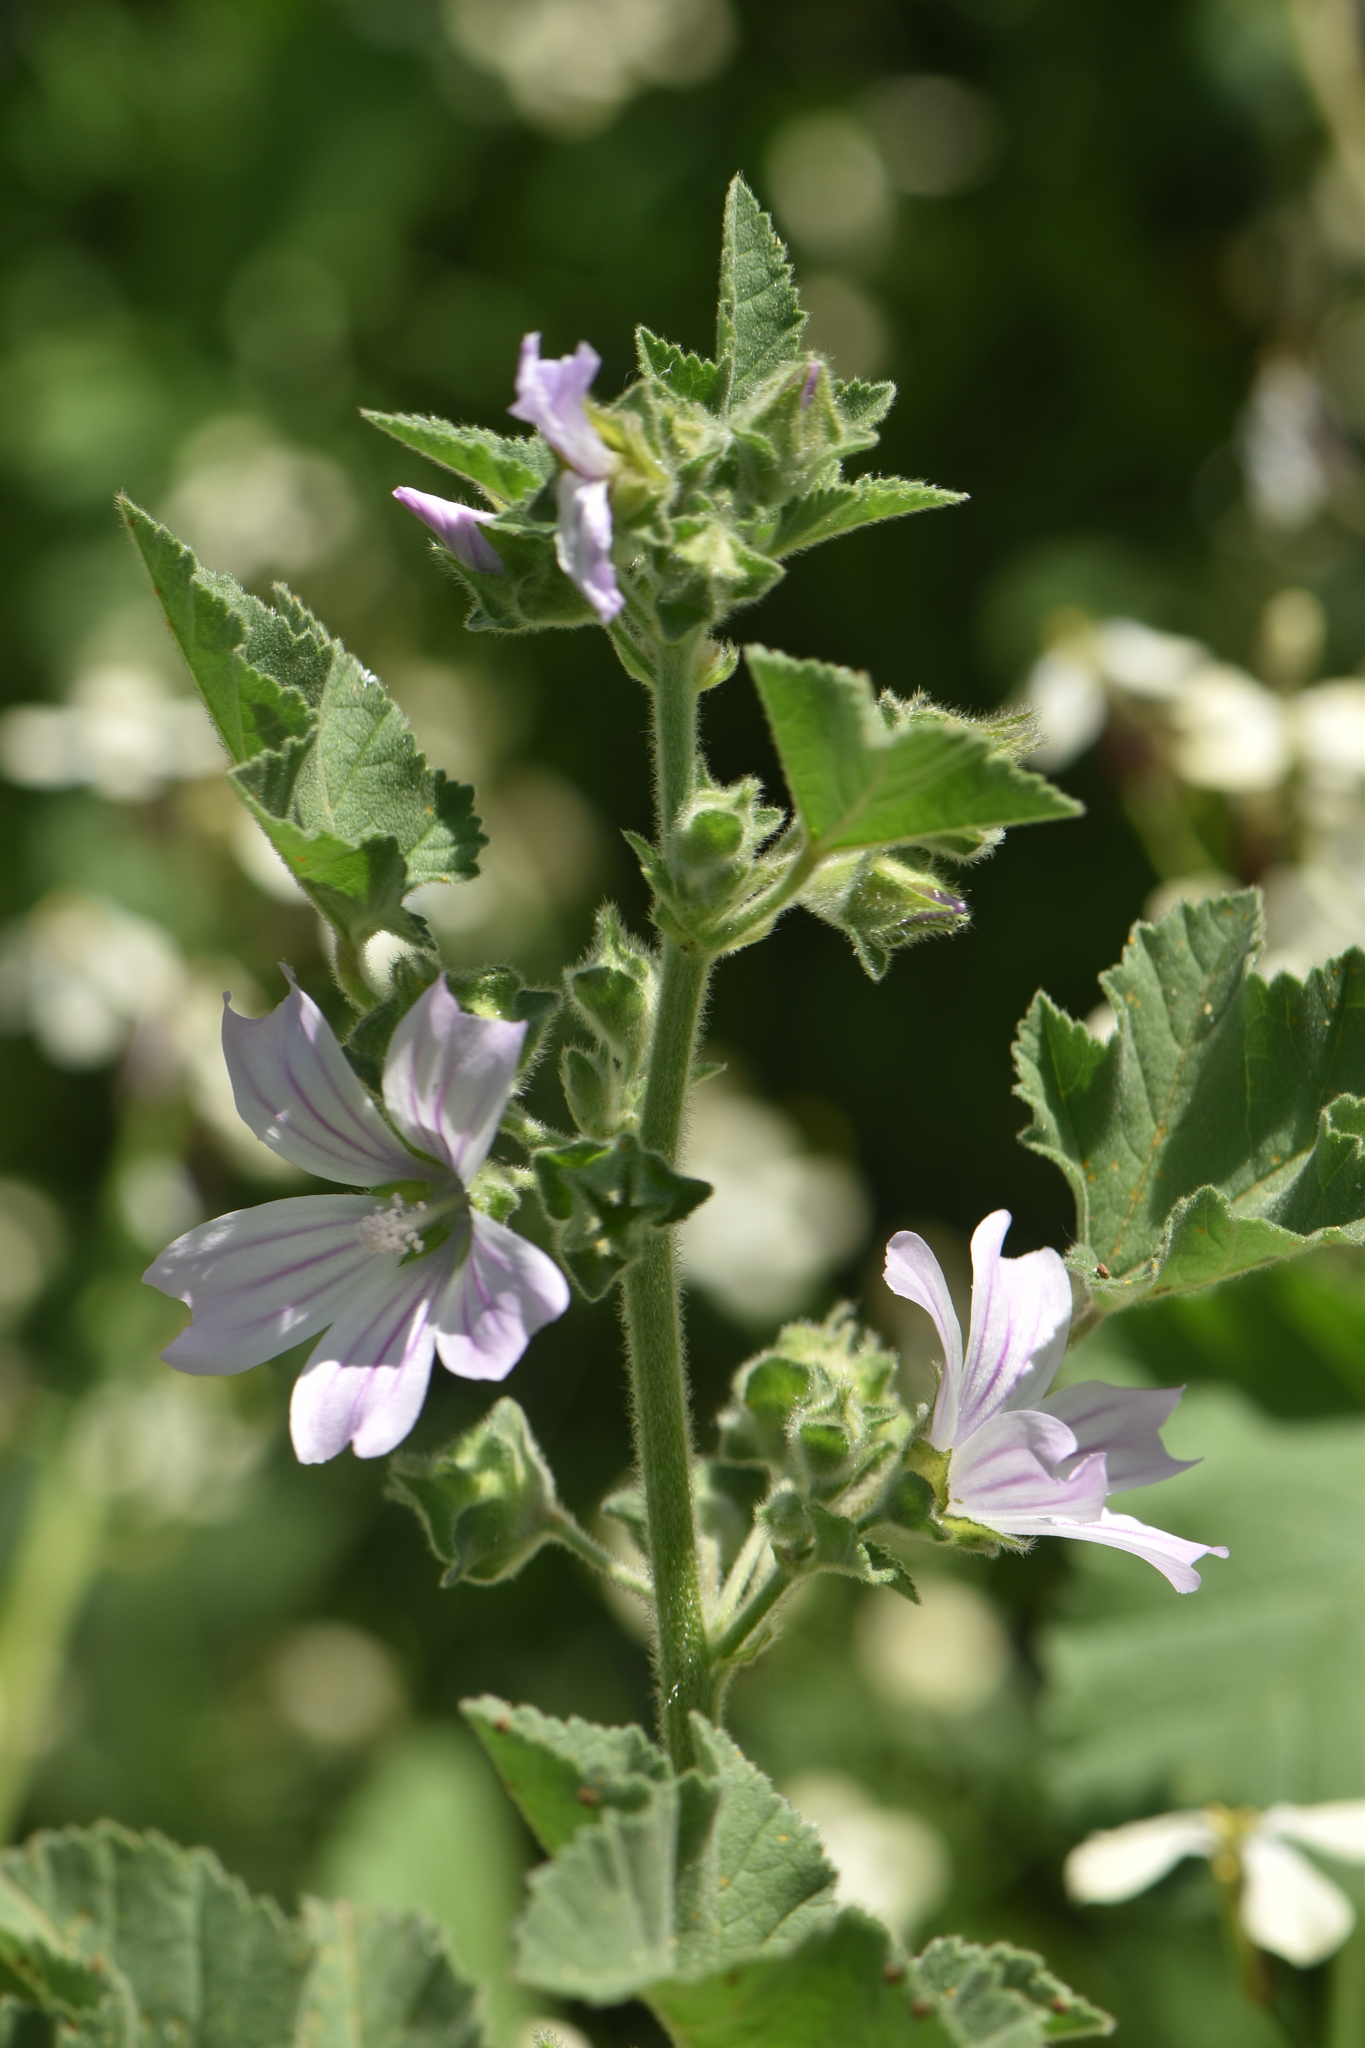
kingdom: Plantae
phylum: Tracheophyta
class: Magnoliopsida
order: Malvales
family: Malvaceae
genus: Malva
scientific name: Malva sylvestris
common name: Common mallow
